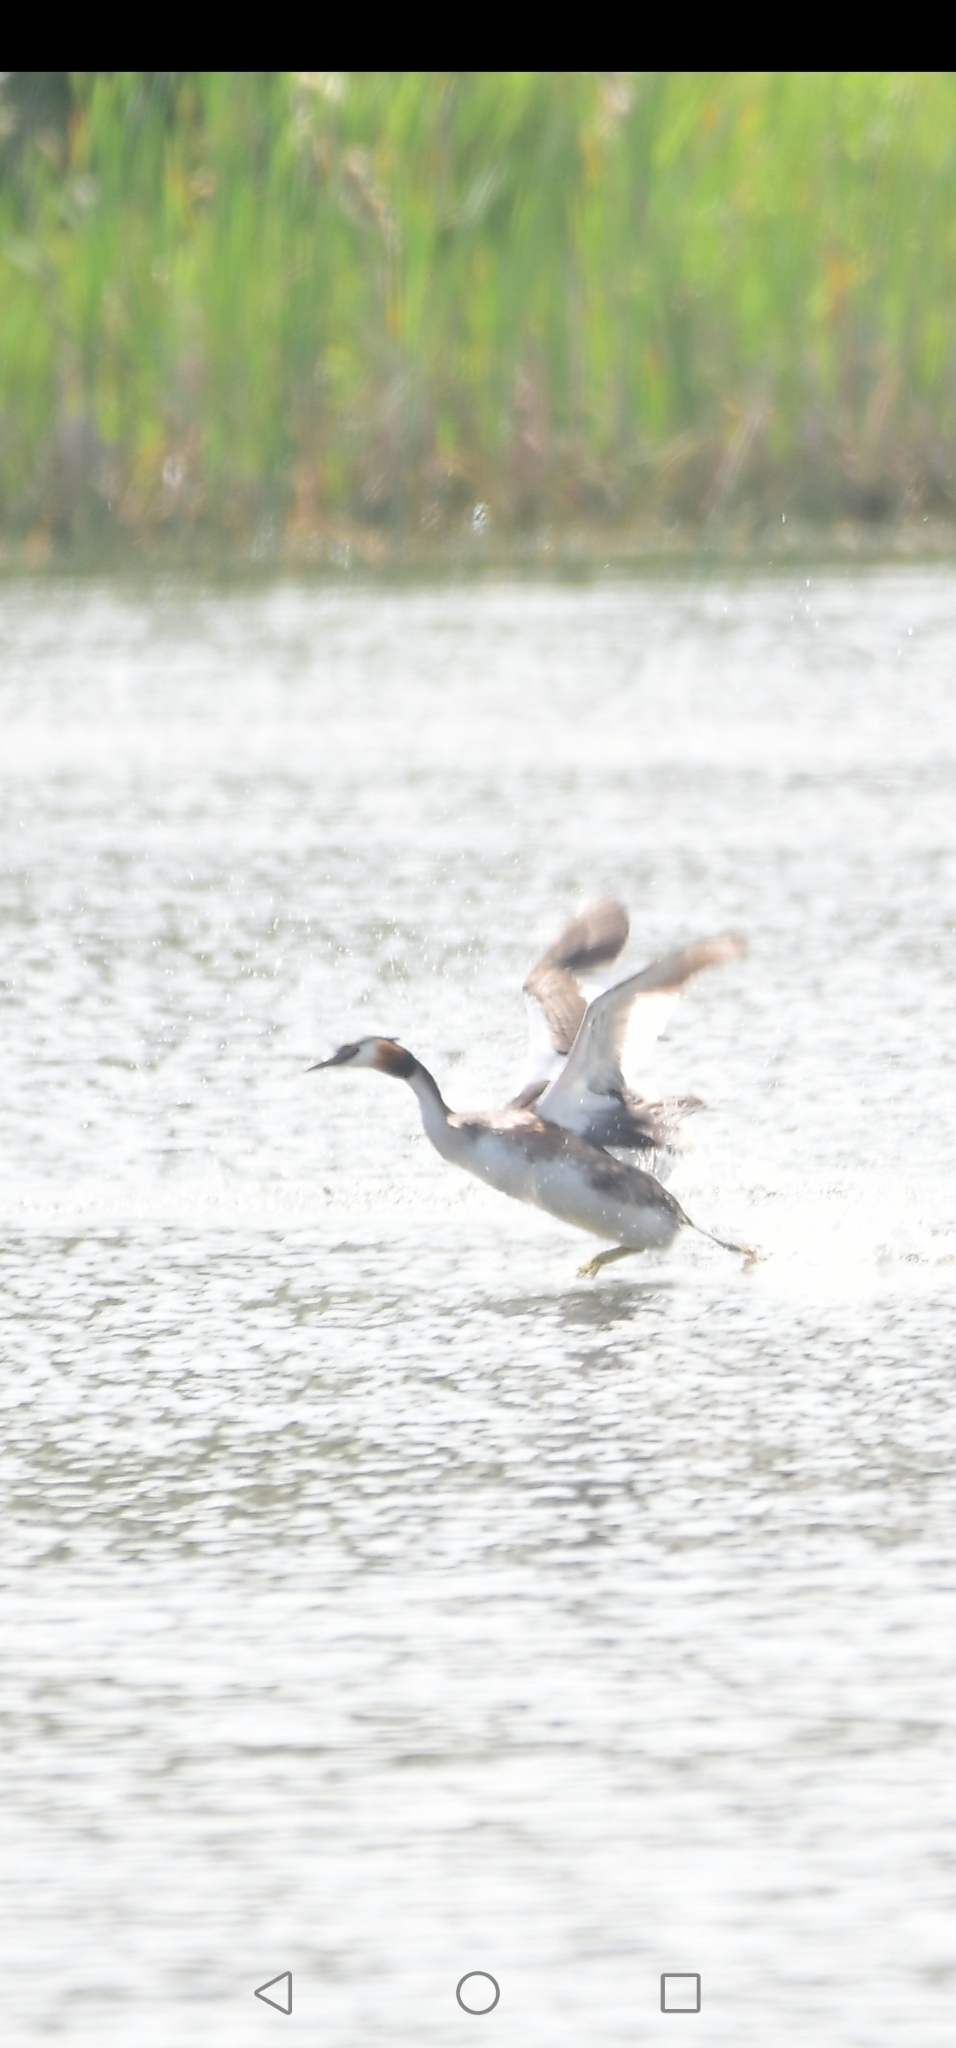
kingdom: Animalia
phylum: Chordata
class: Aves
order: Podicipediformes
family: Podicipedidae
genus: Podiceps
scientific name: Podiceps cristatus
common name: Great crested grebe
